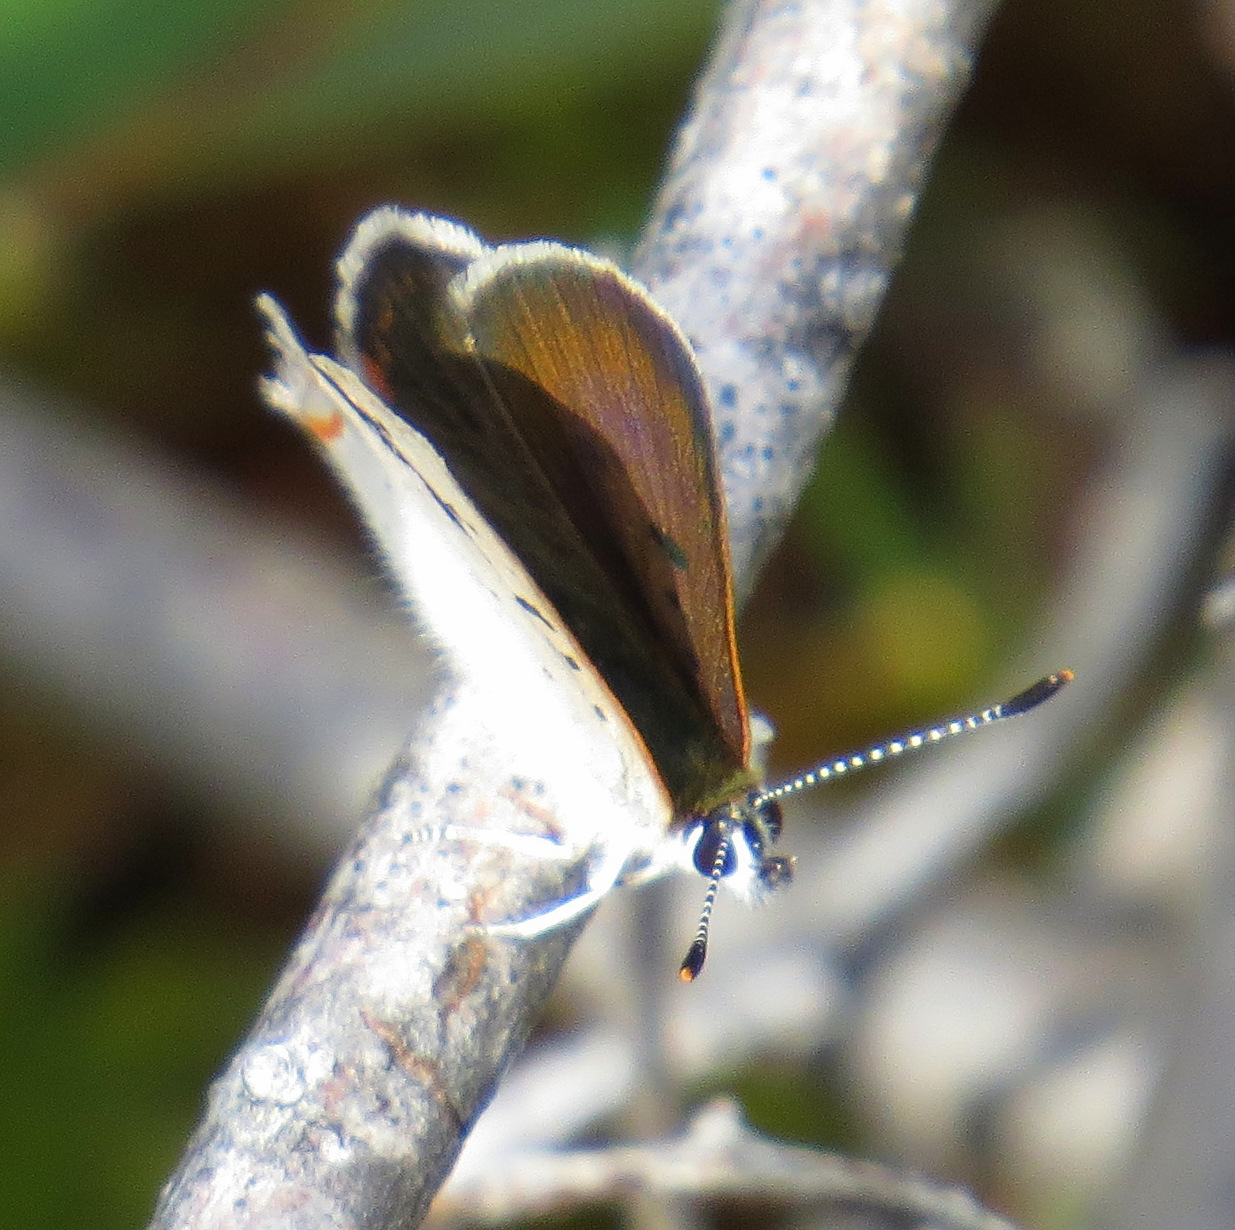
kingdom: Animalia
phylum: Arthropoda
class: Insecta
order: Lepidoptera
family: Lycaenidae
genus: Tharsalea
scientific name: Tharsalea epixanthe
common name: Bog copper
